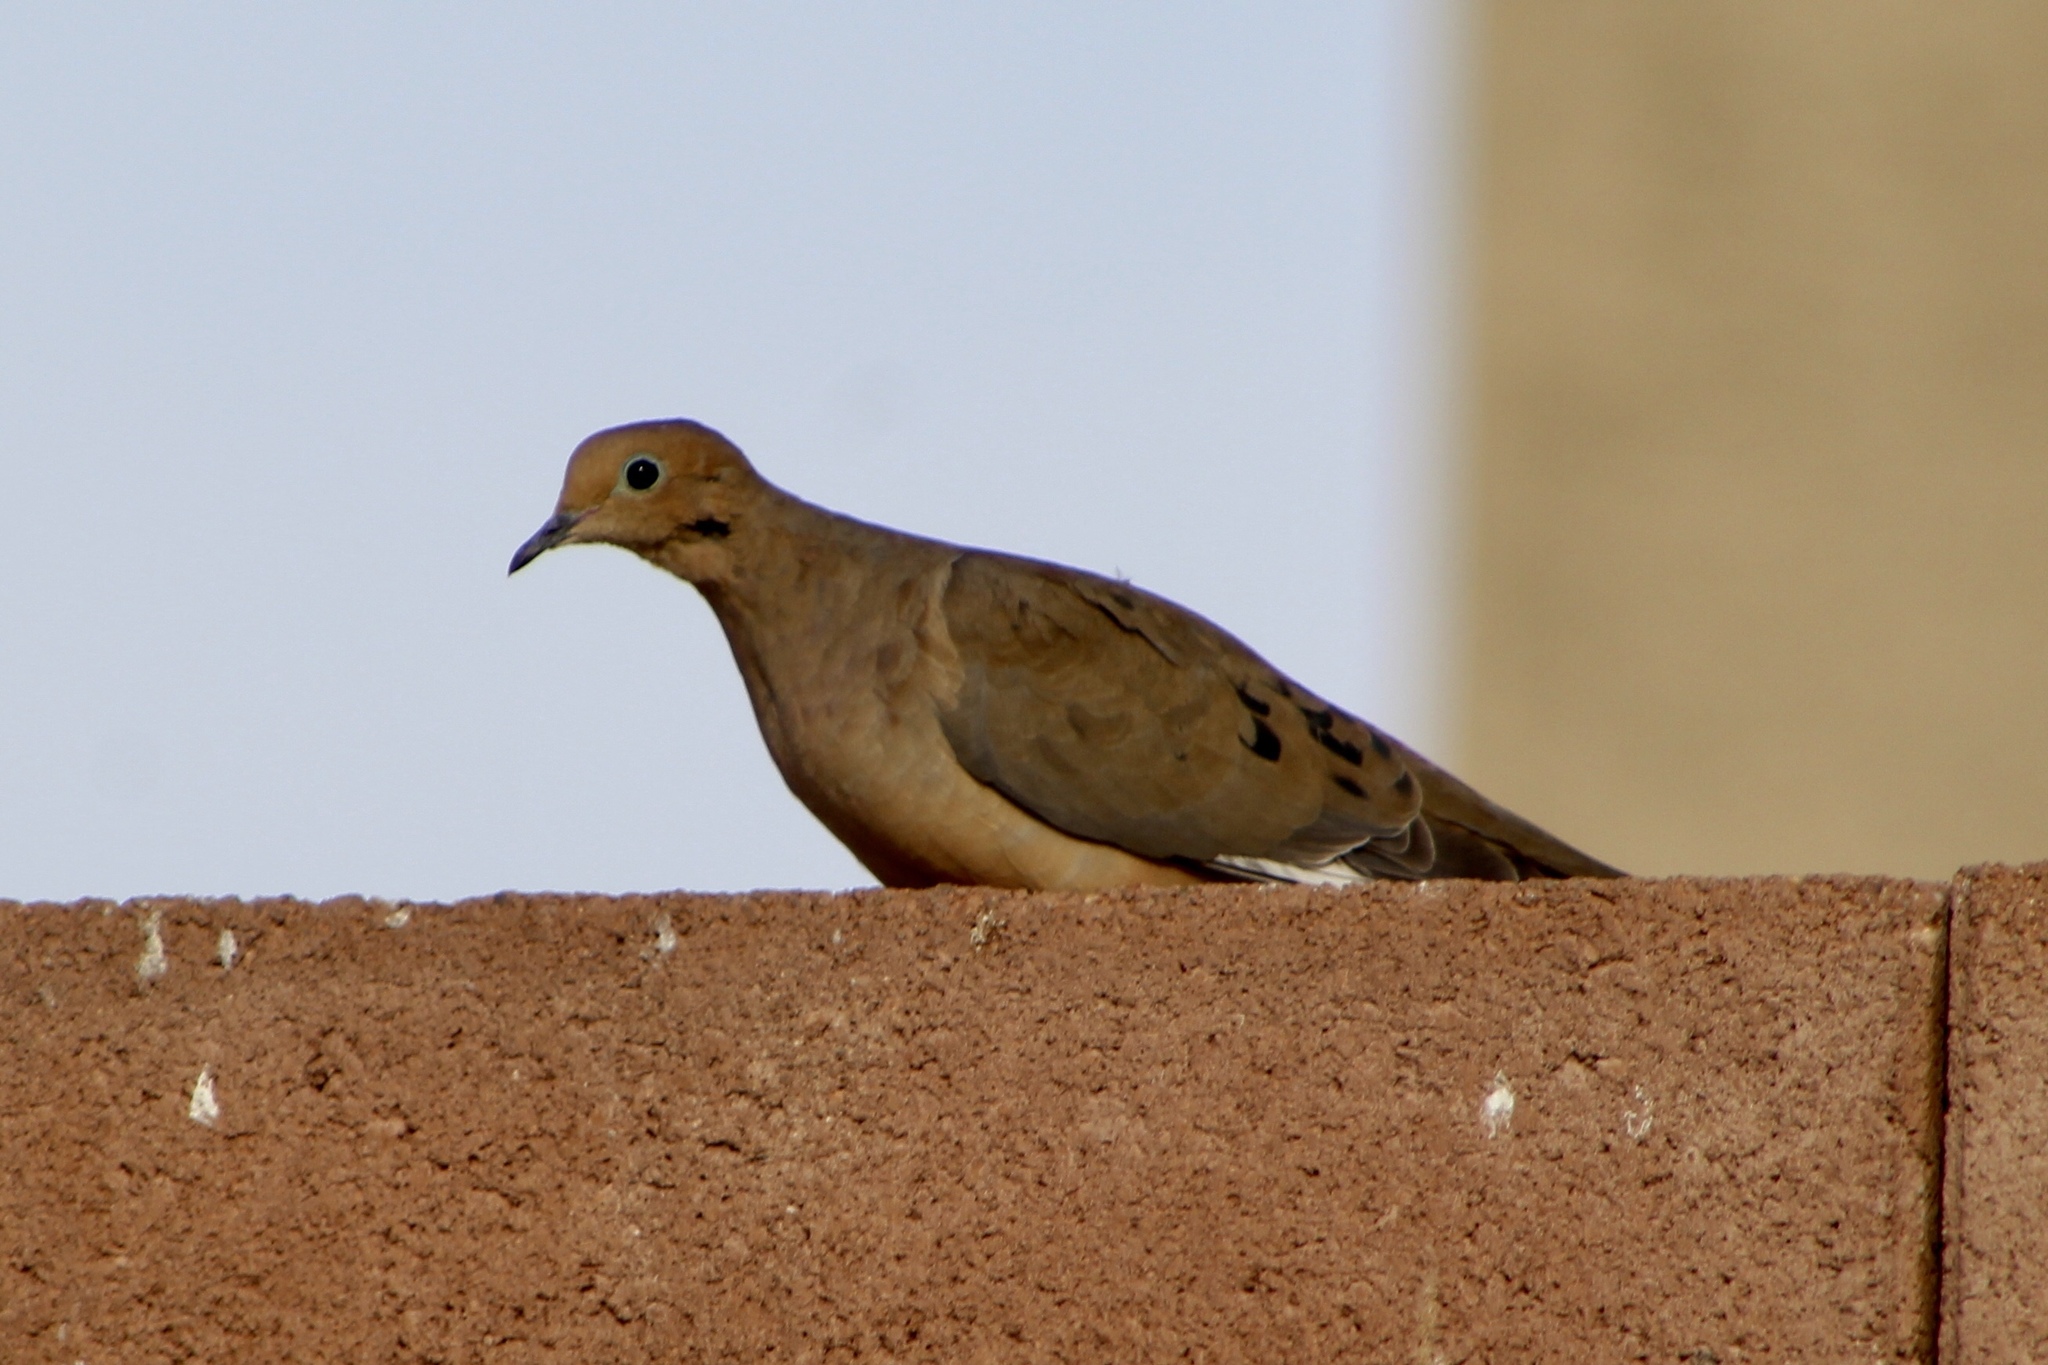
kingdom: Animalia
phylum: Chordata
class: Aves
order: Columbiformes
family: Columbidae
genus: Zenaida
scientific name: Zenaida macroura
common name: Mourning dove
